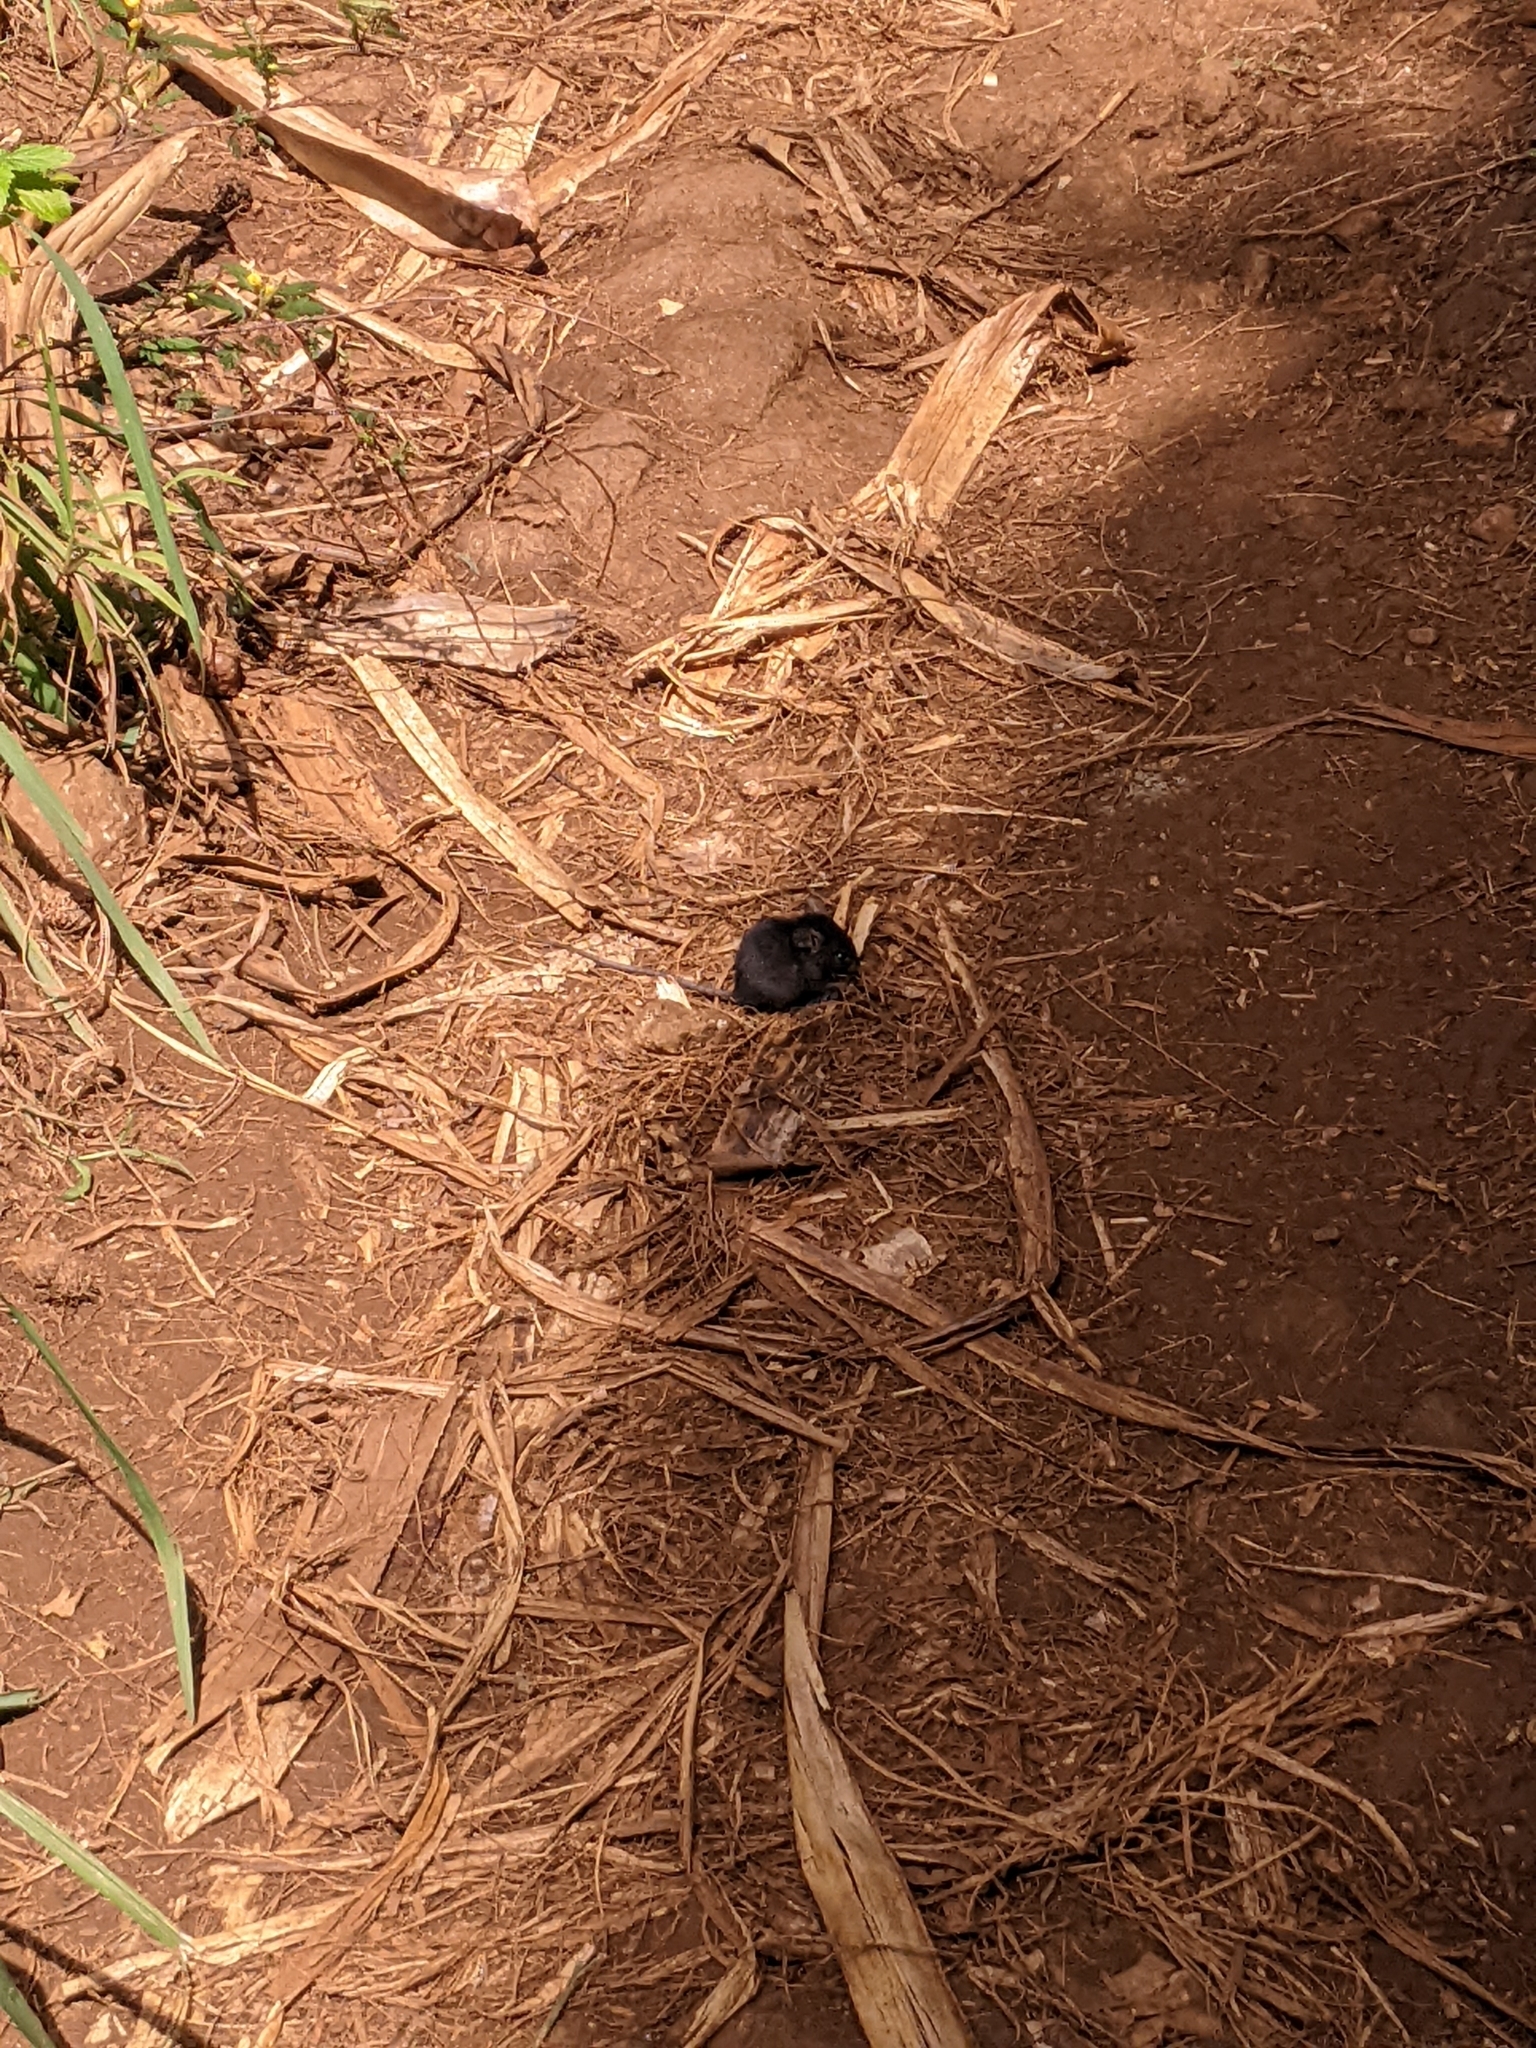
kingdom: Animalia
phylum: Chordata
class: Mammalia
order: Rodentia
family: Muridae
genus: Mus
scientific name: Mus musculus
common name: House mouse
